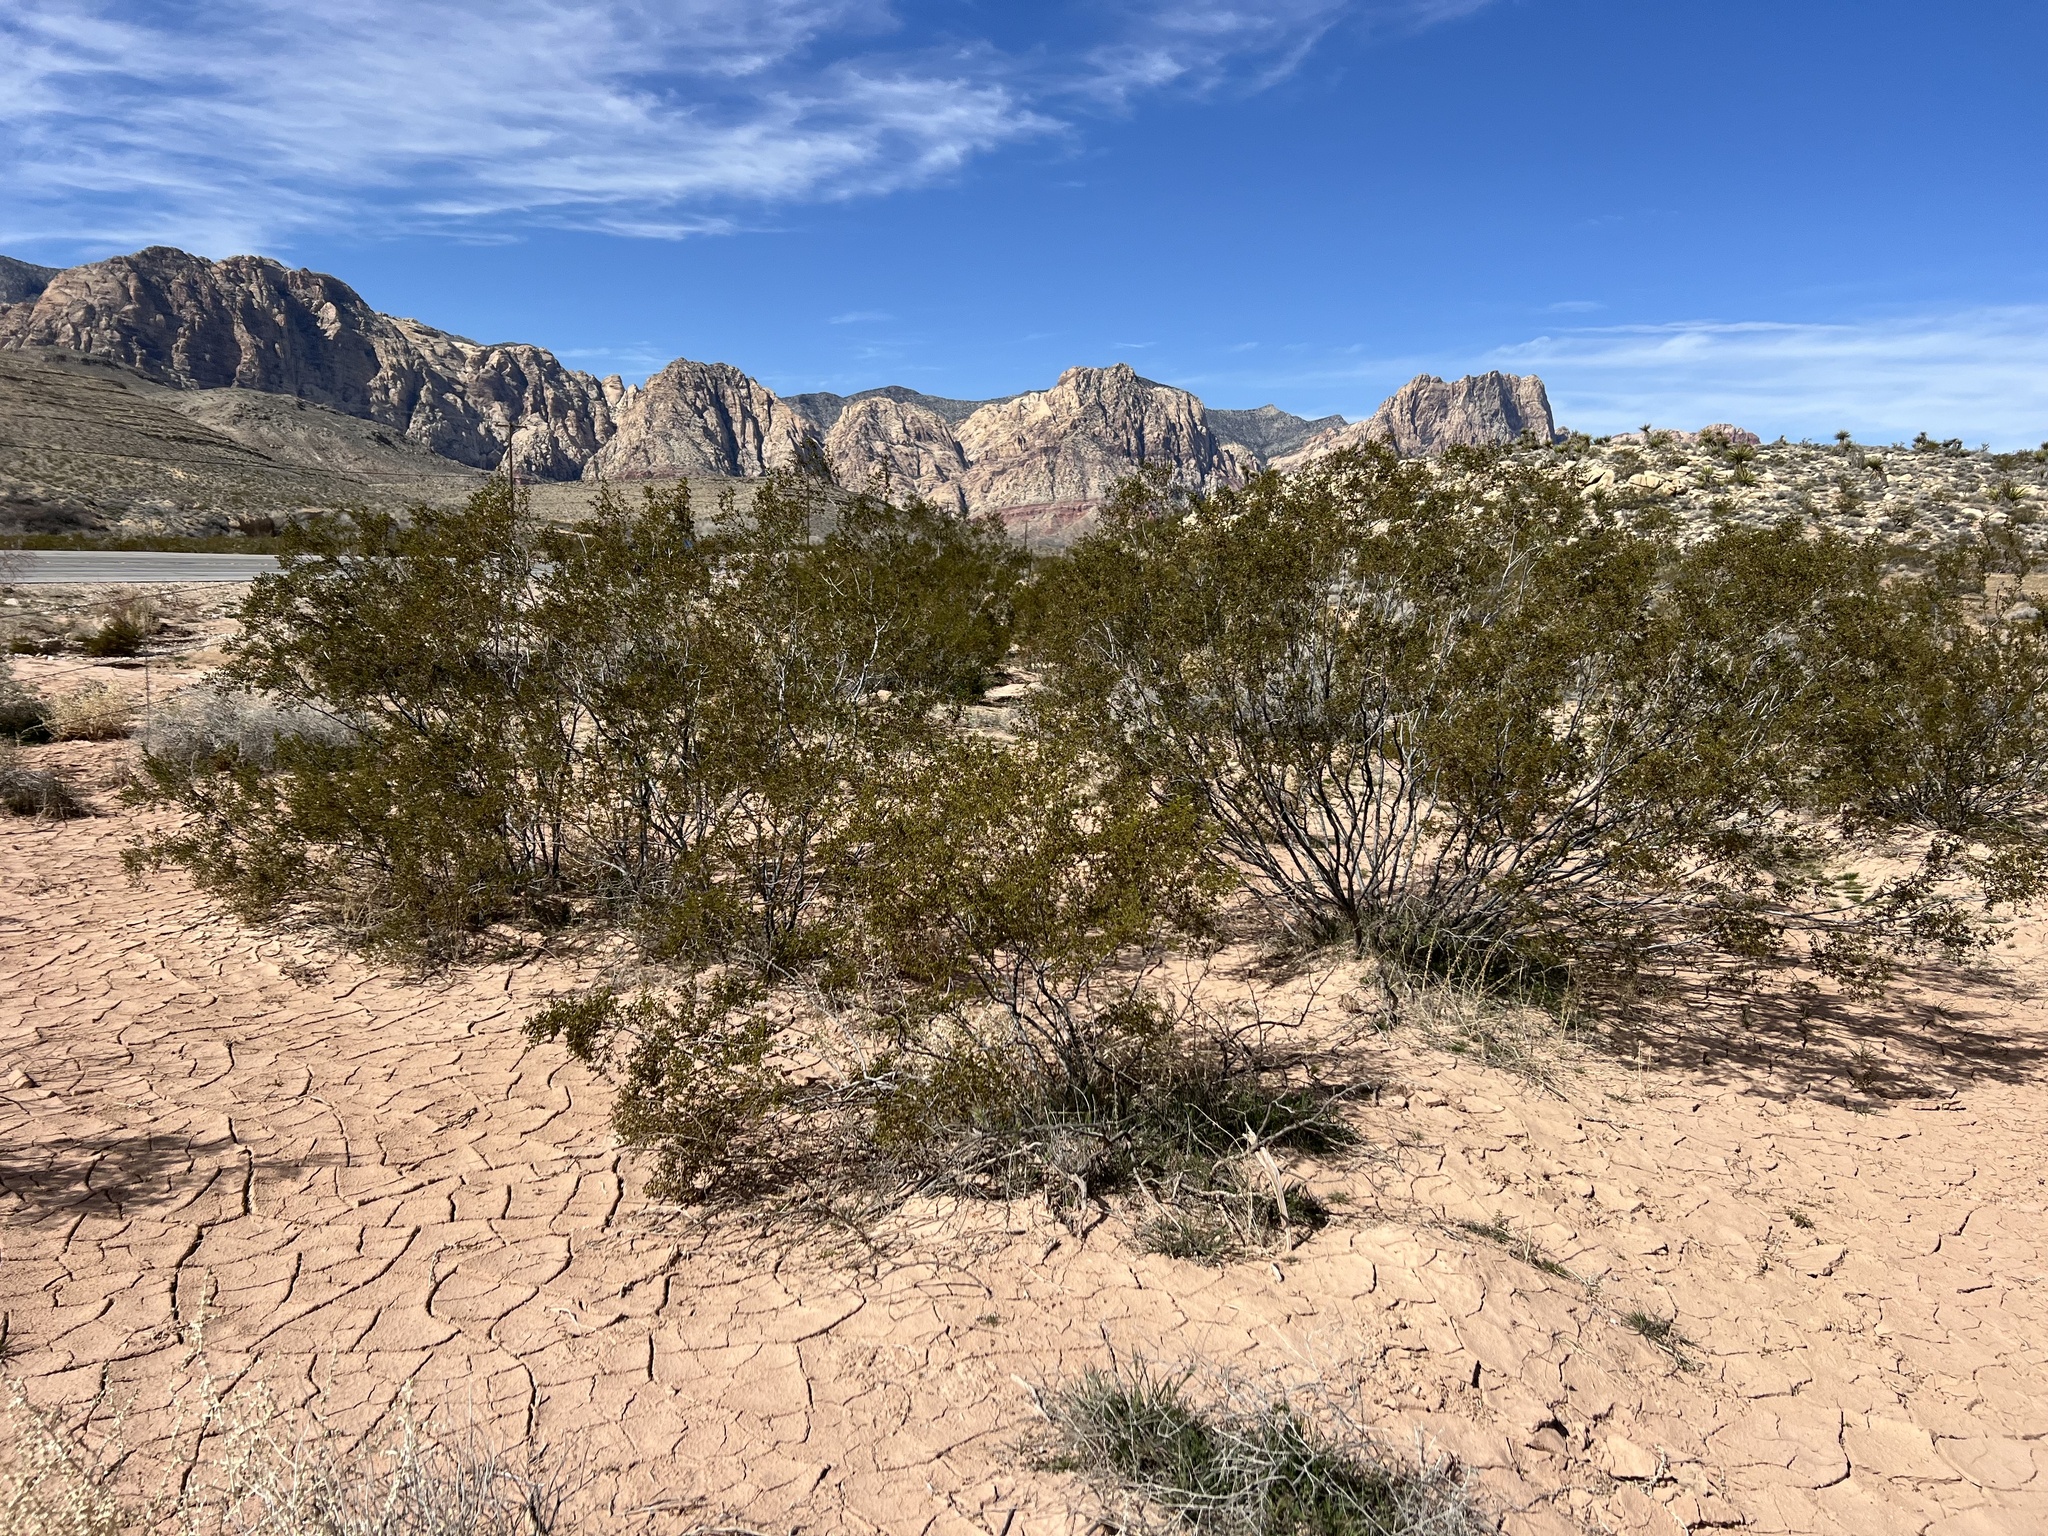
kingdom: Plantae
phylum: Tracheophyta
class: Magnoliopsida
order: Zygophyllales
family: Zygophyllaceae
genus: Larrea
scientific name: Larrea tridentata
